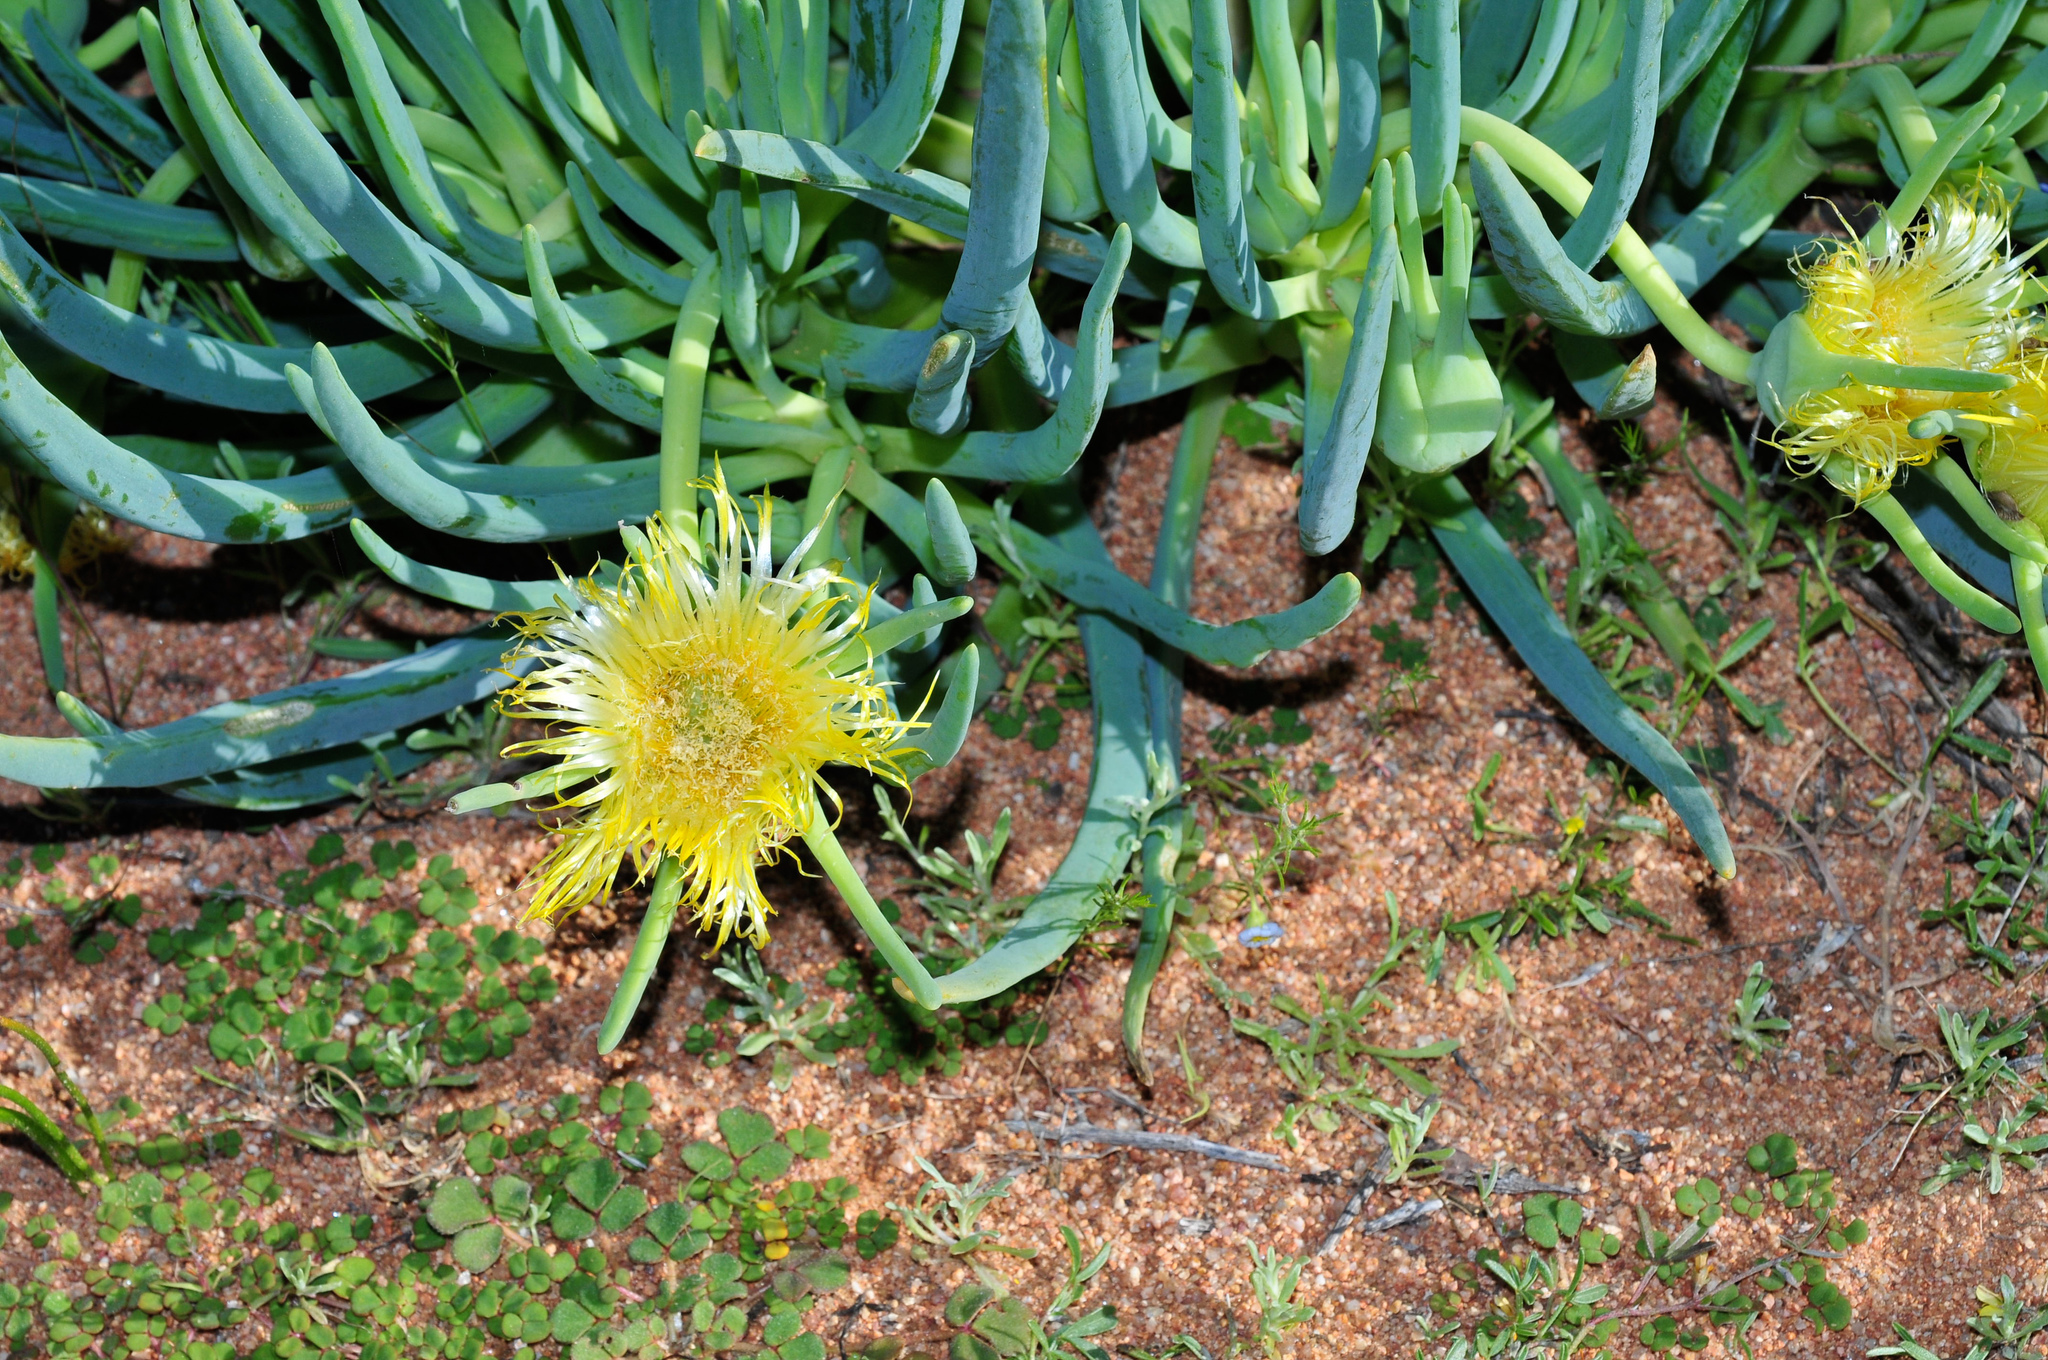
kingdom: Plantae
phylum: Tracheophyta
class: Magnoliopsida
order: Caryophyllales
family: Aizoaceae
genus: Conicosia
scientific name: Conicosia pugioniformis
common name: Narrow-leaved iceplant
